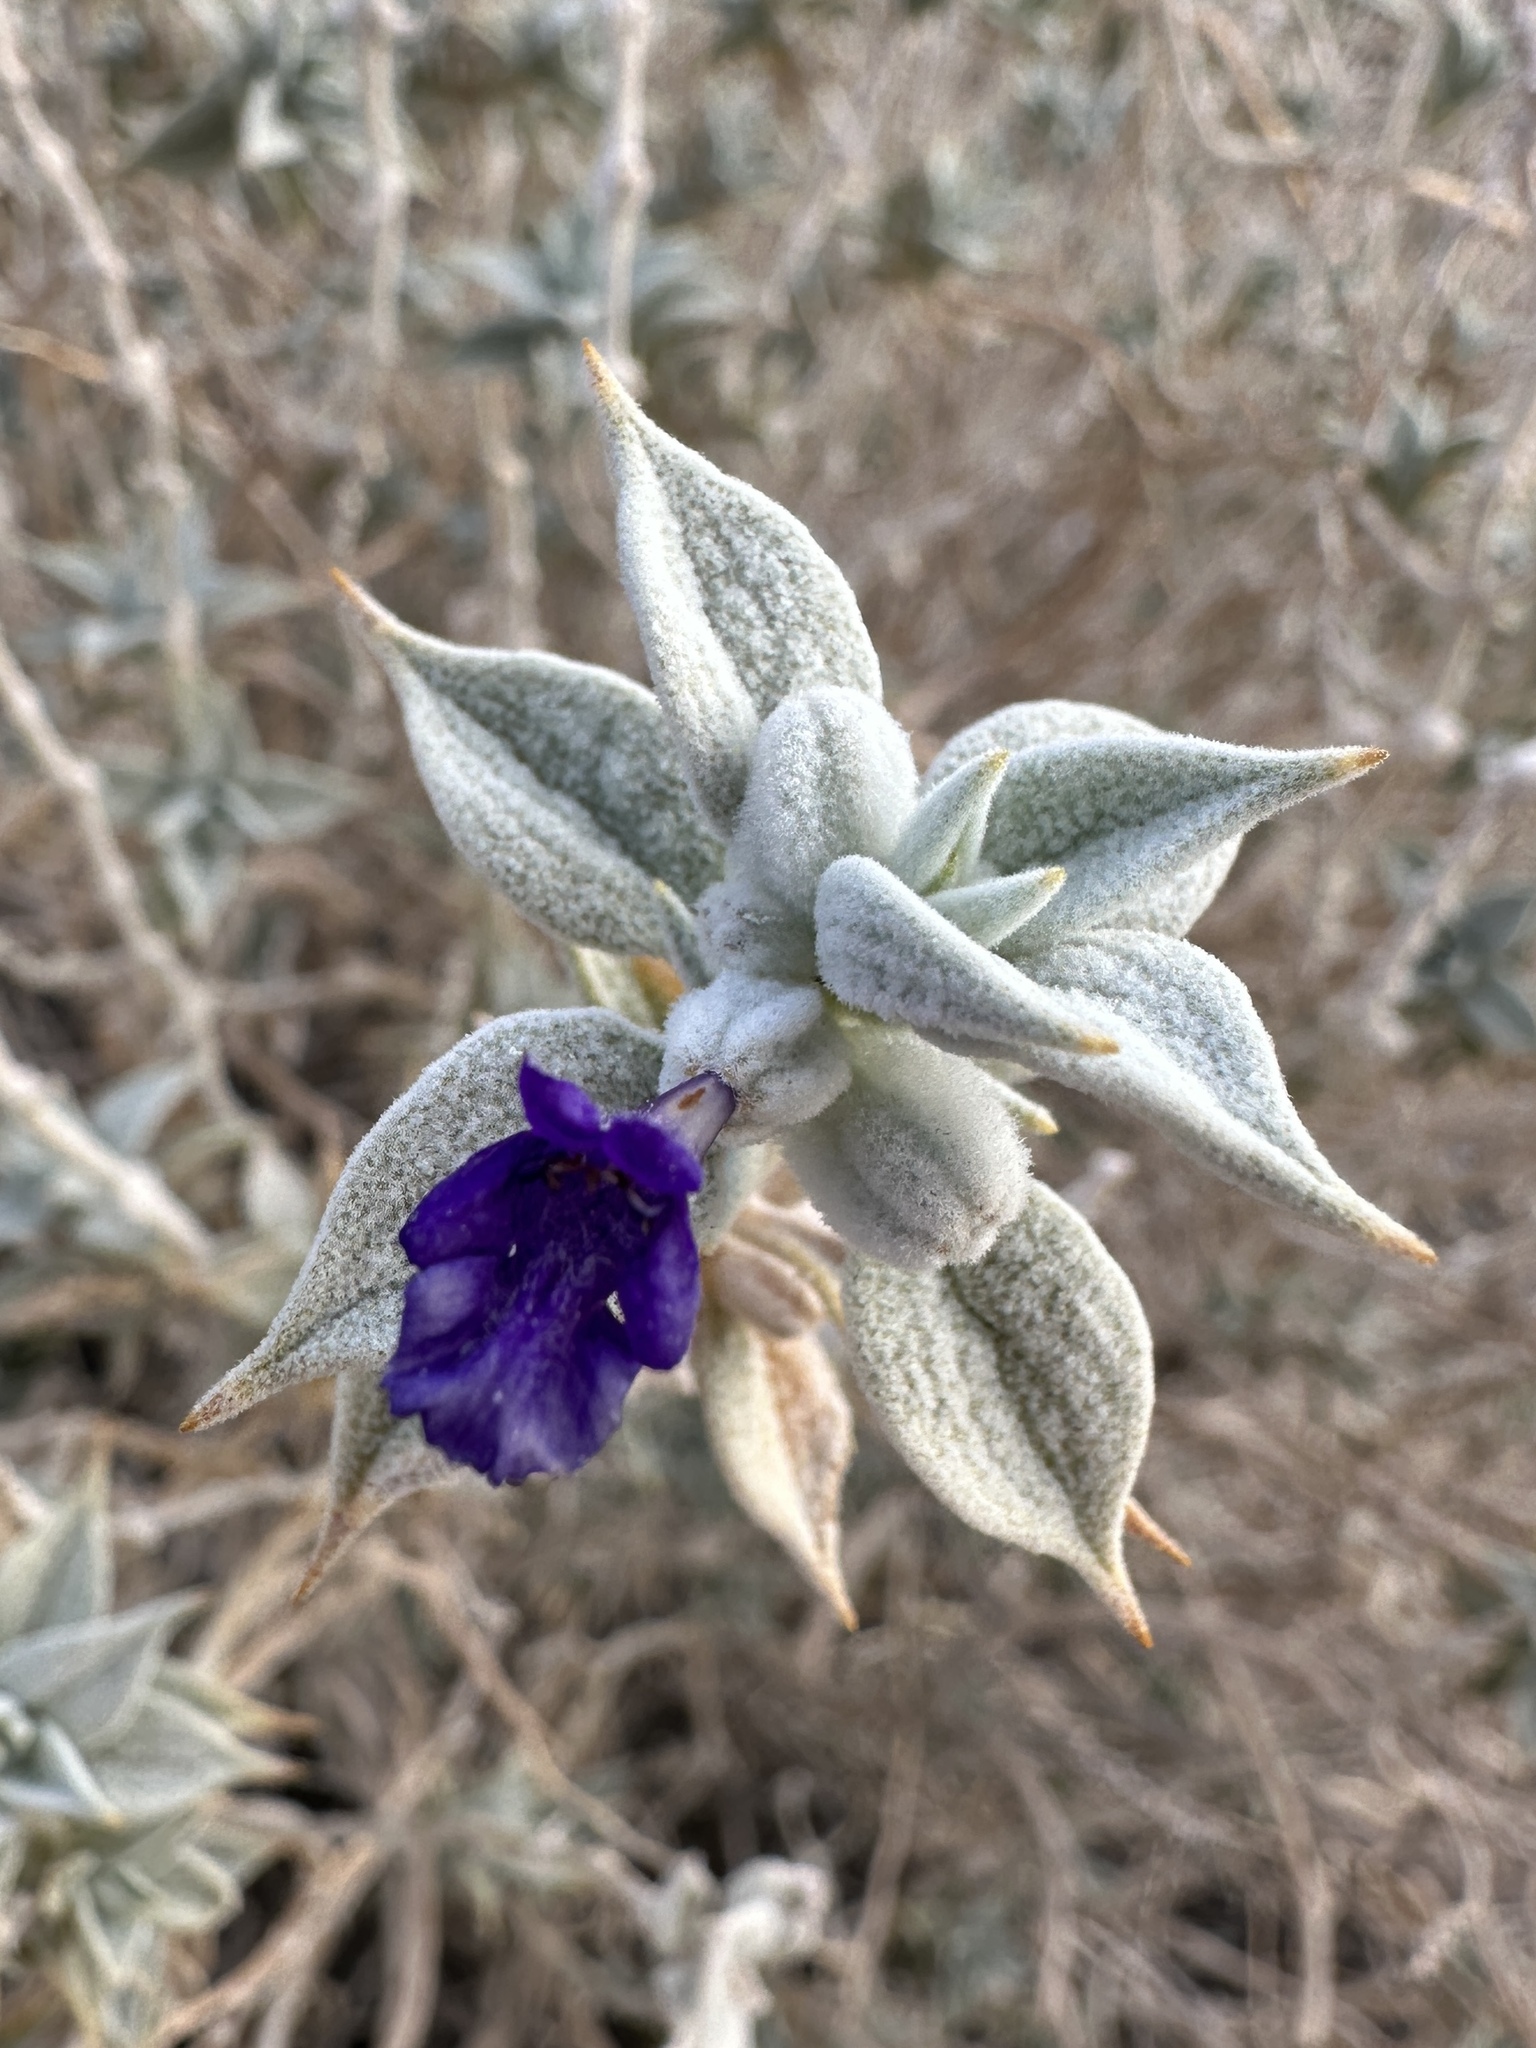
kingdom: Plantae
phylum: Tracheophyta
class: Magnoliopsida
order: Lamiales
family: Lamiaceae
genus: Salvia
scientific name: Salvia funerea
